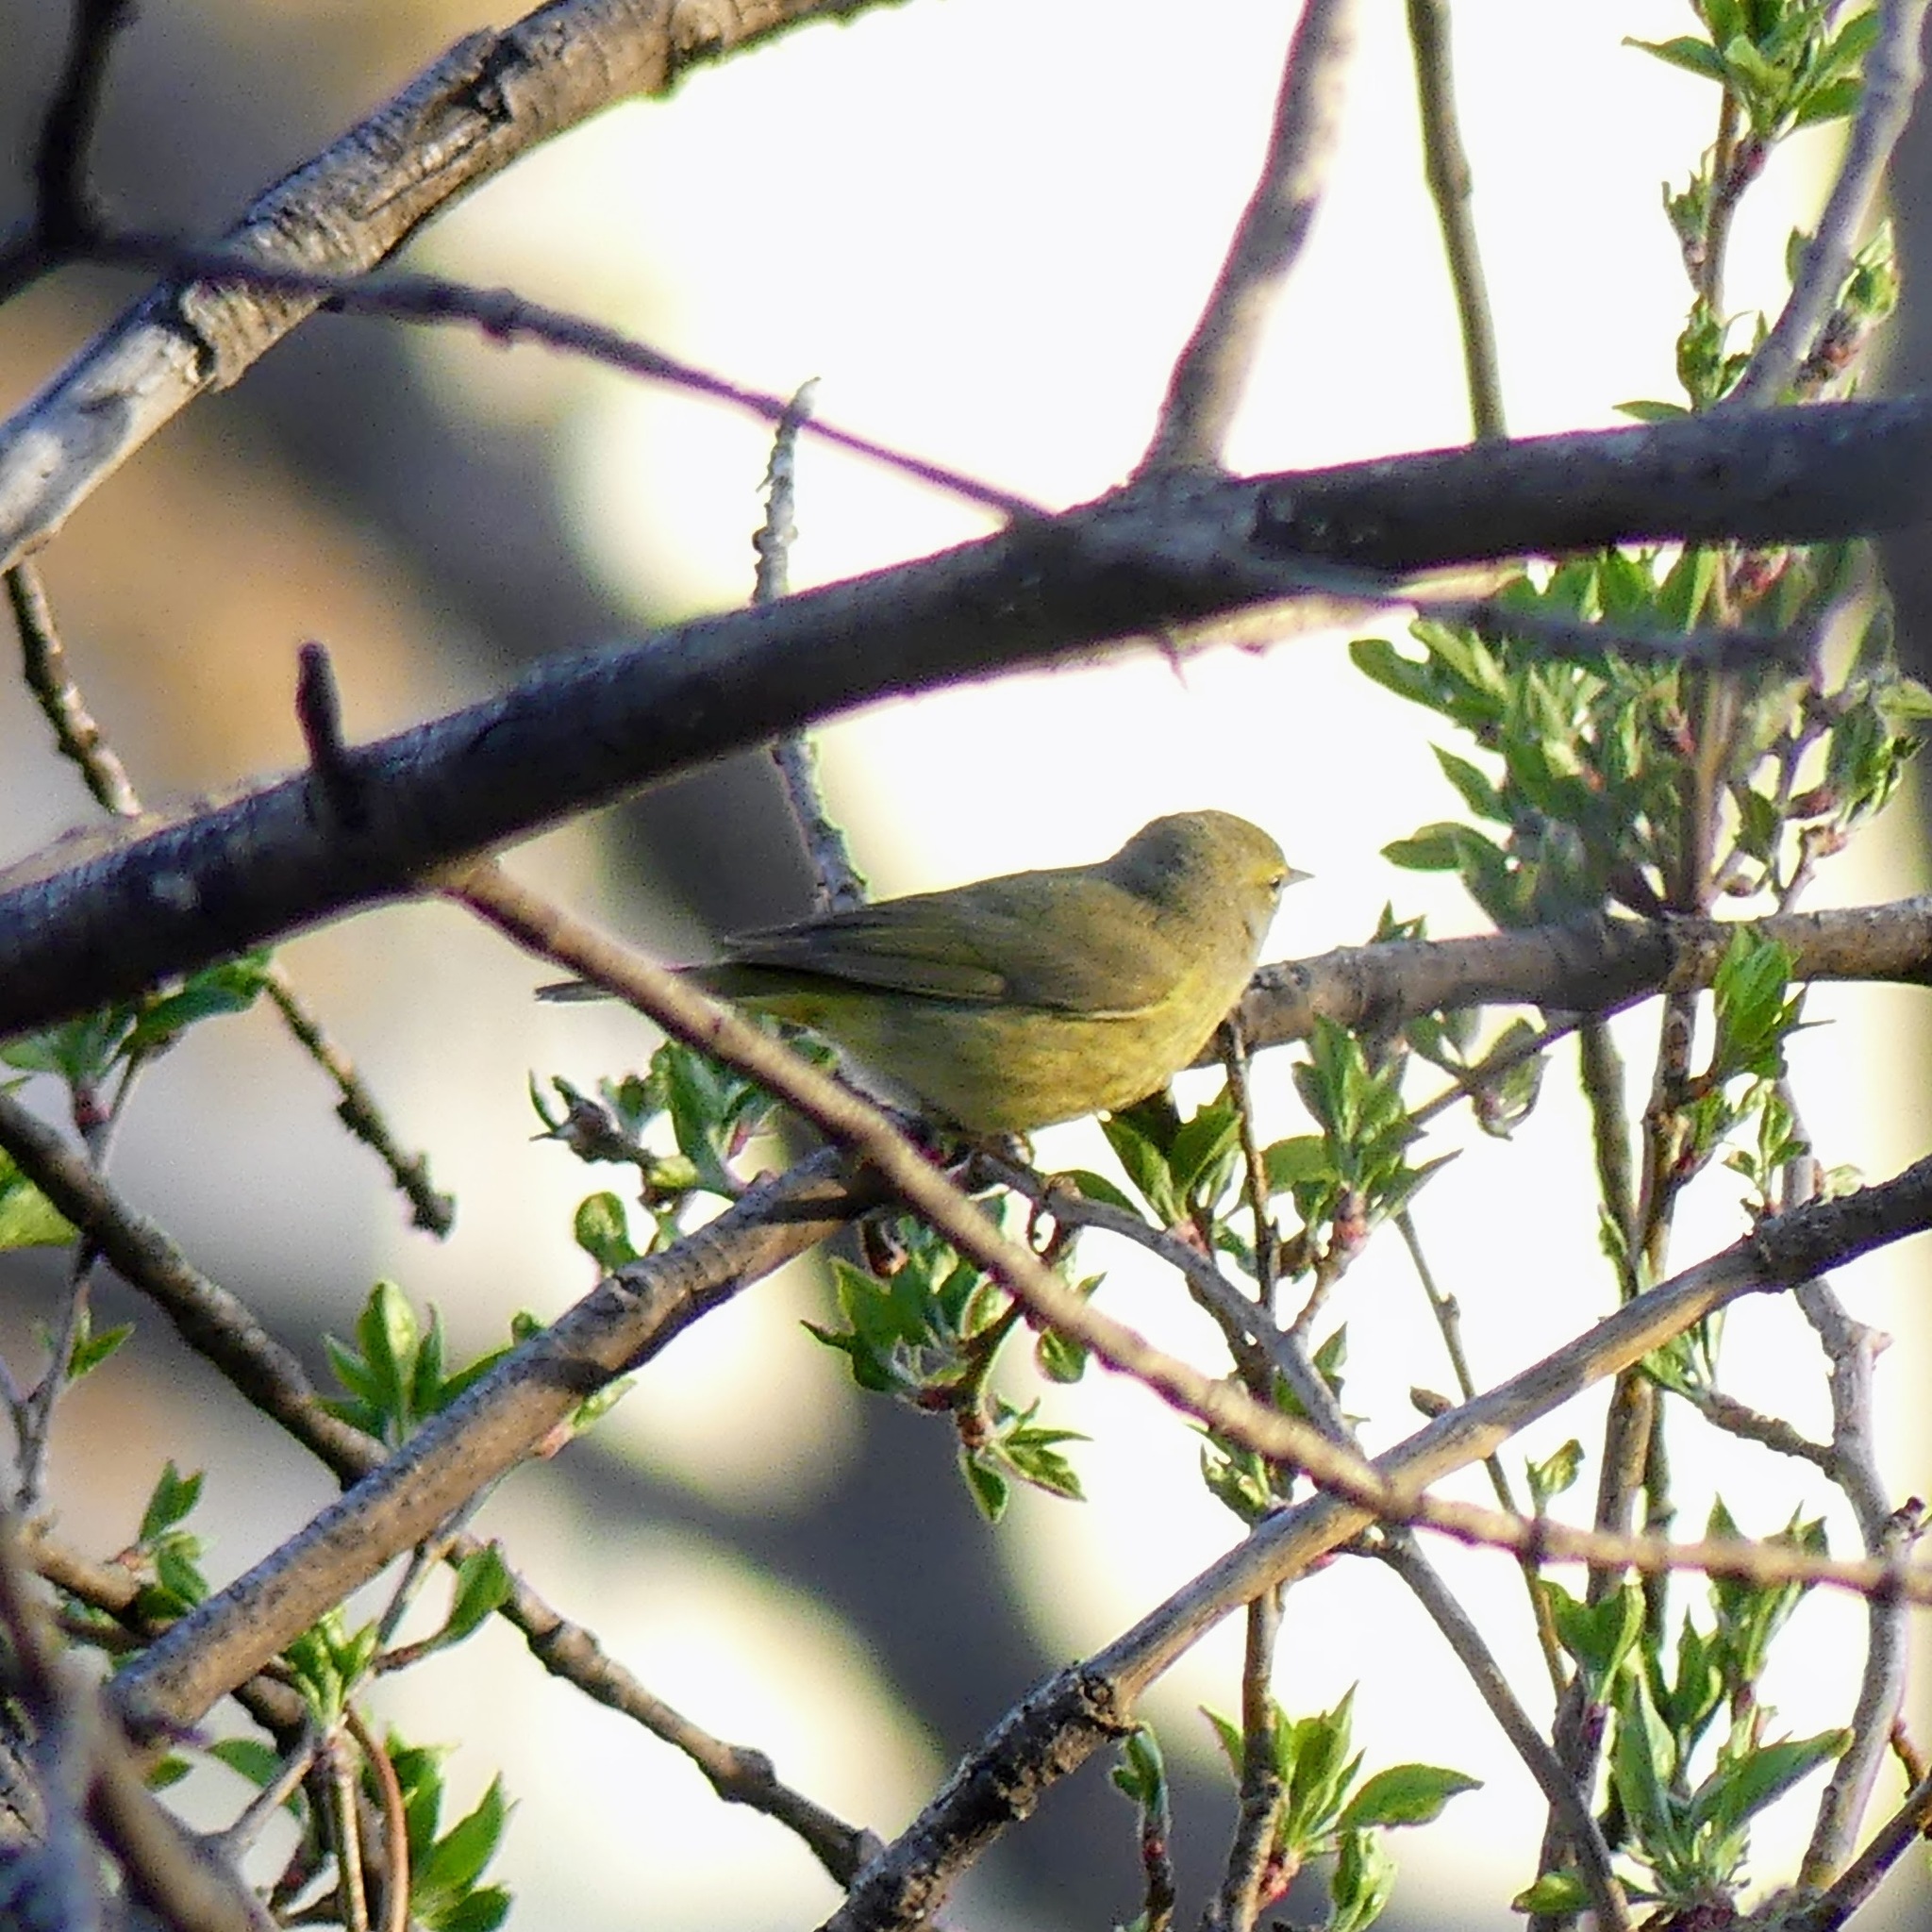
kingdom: Animalia
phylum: Chordata
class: Aves
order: Passeriformes
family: Parulidae
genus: Leiothlypis
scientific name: Leiothlypis celata
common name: Orange-crowned warbler
